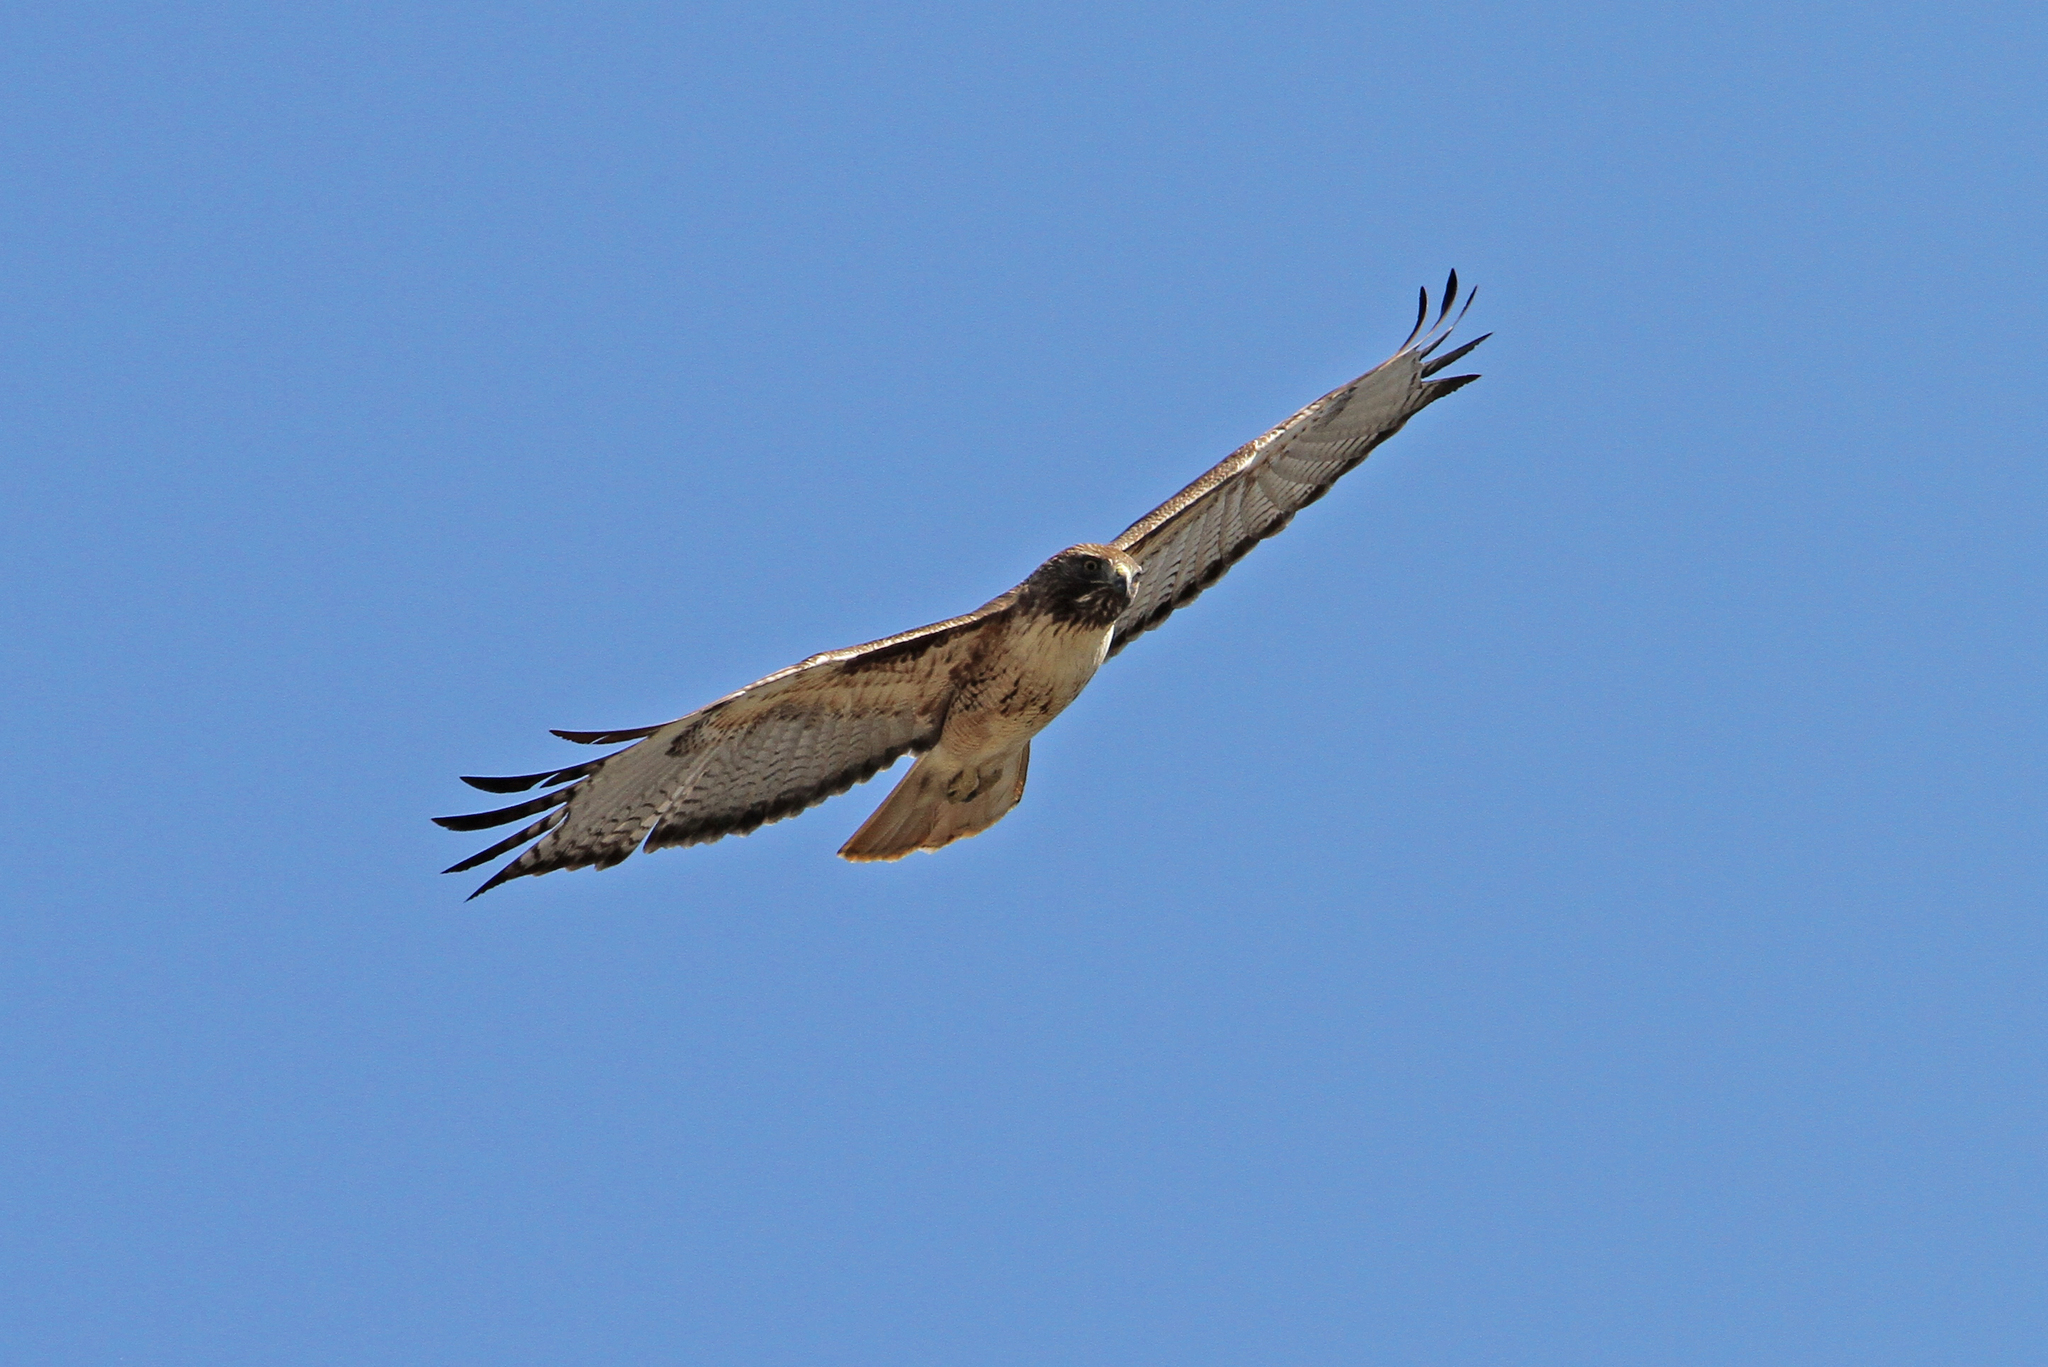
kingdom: Animalia
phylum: Chordata
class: Aves
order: Accipitriformes
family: Accipitridae
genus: Buteo
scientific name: Buteo jamaicensis
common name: Red-tailed hawk
